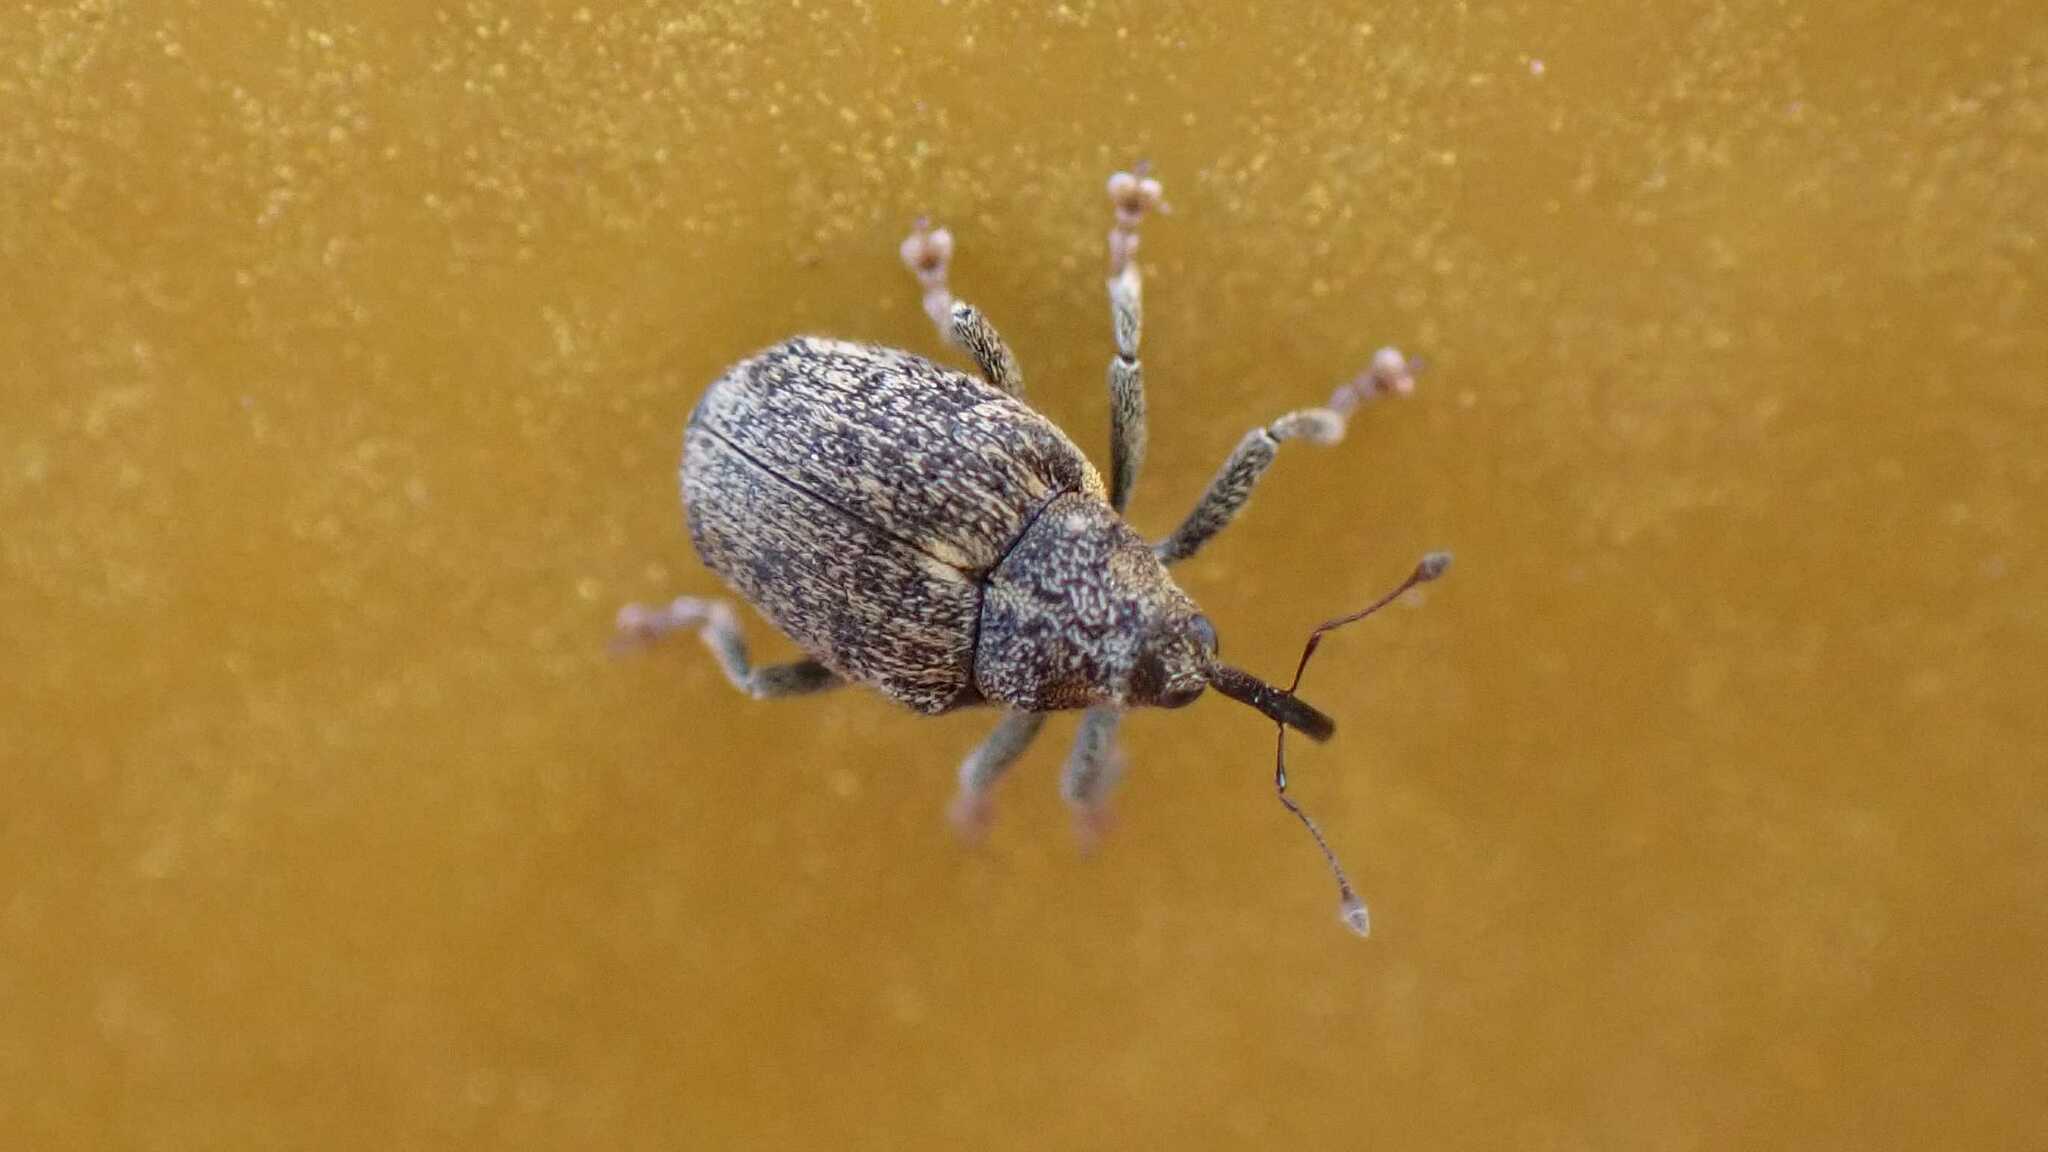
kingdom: Animalia
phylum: Arthropoda
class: Insecta
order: Coleoptera
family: Curculionidae
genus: Ceutorhynchus
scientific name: Ceutorhynchus pallidactylus
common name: Cabbage stem weavil
